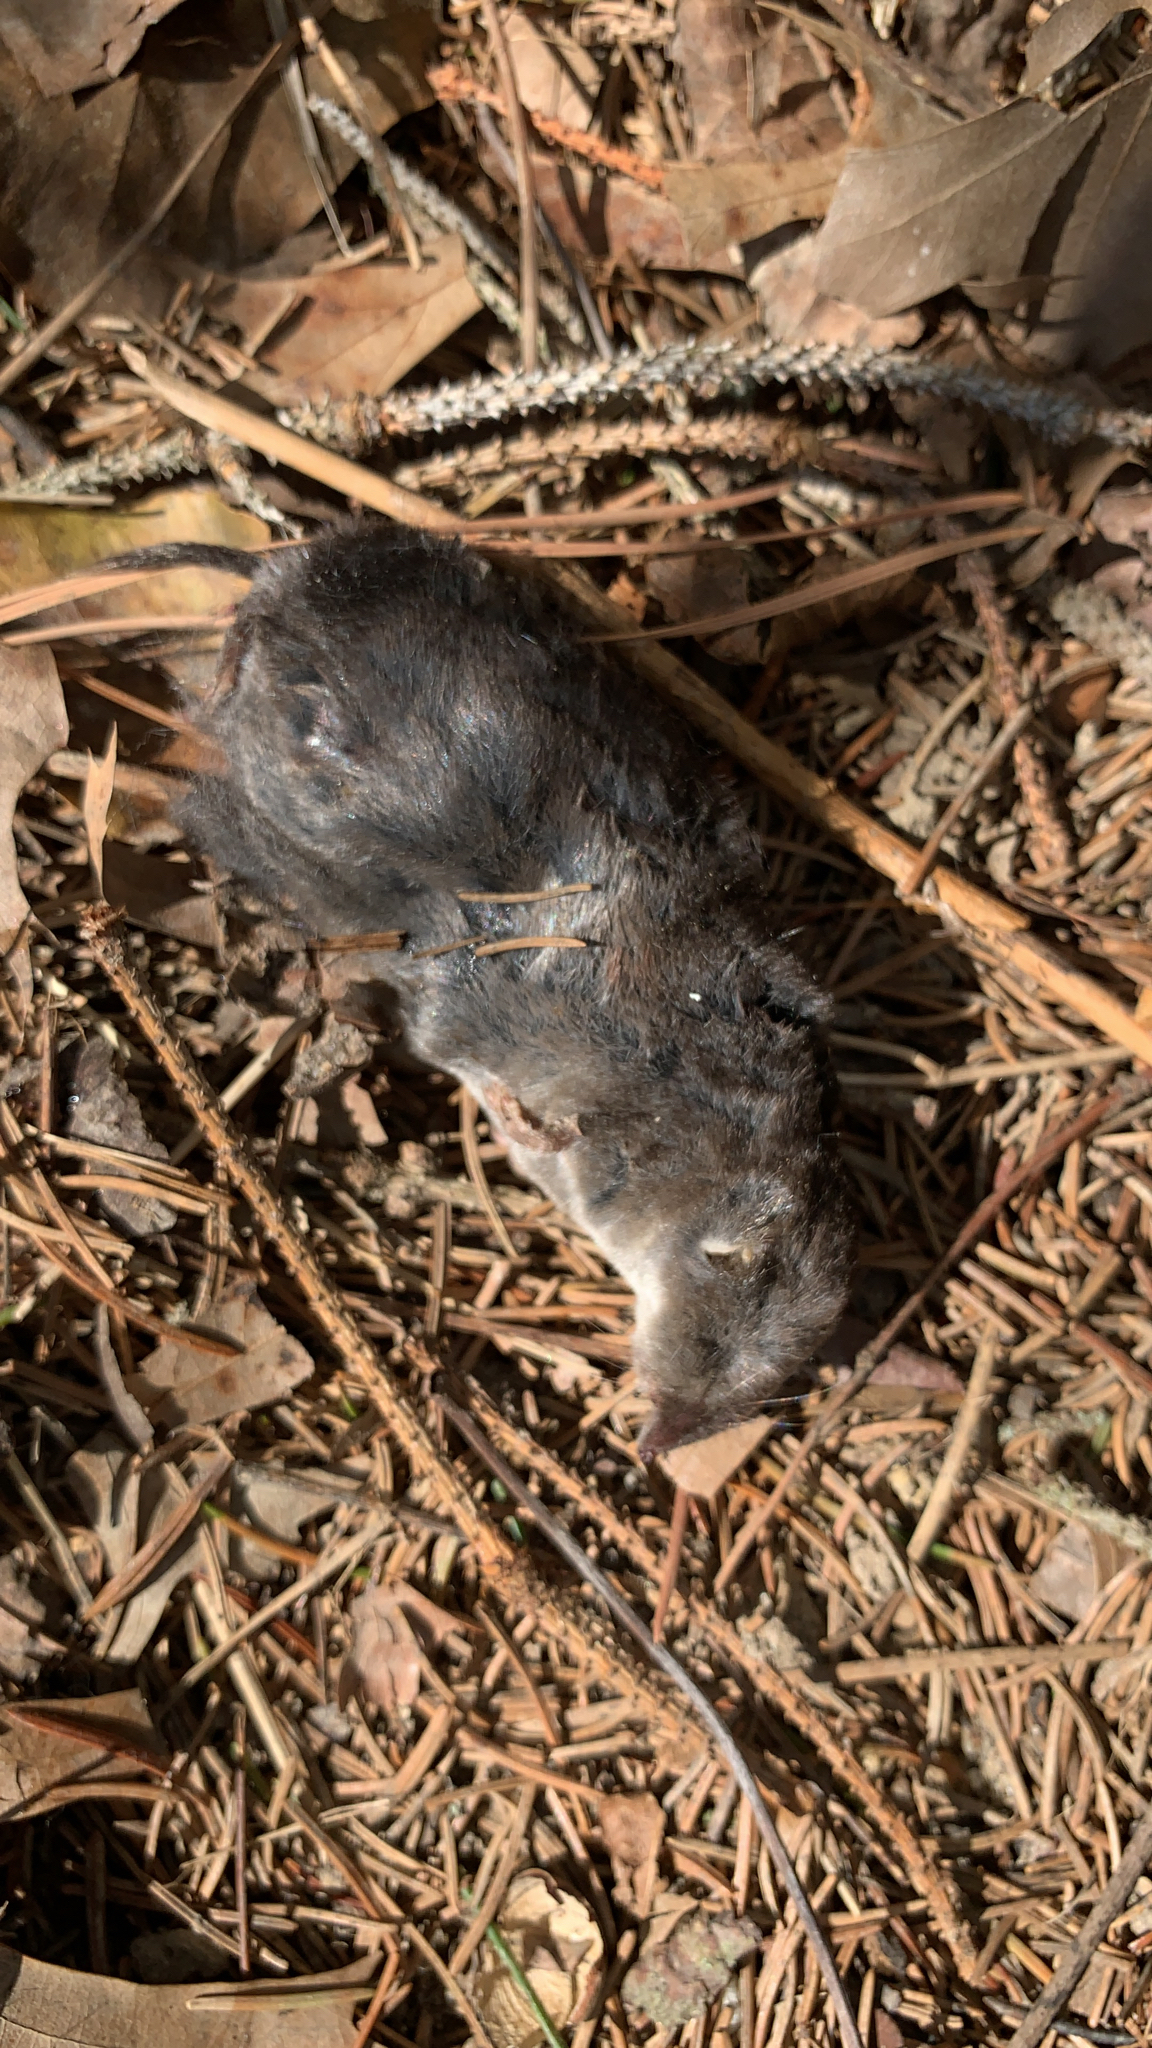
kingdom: Animalia
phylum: Chordata
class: Mammalia
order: Soricomorpha
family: Soricidae
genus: Blarina
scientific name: Blarina brevicauda
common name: Northern short-tailed shrew
